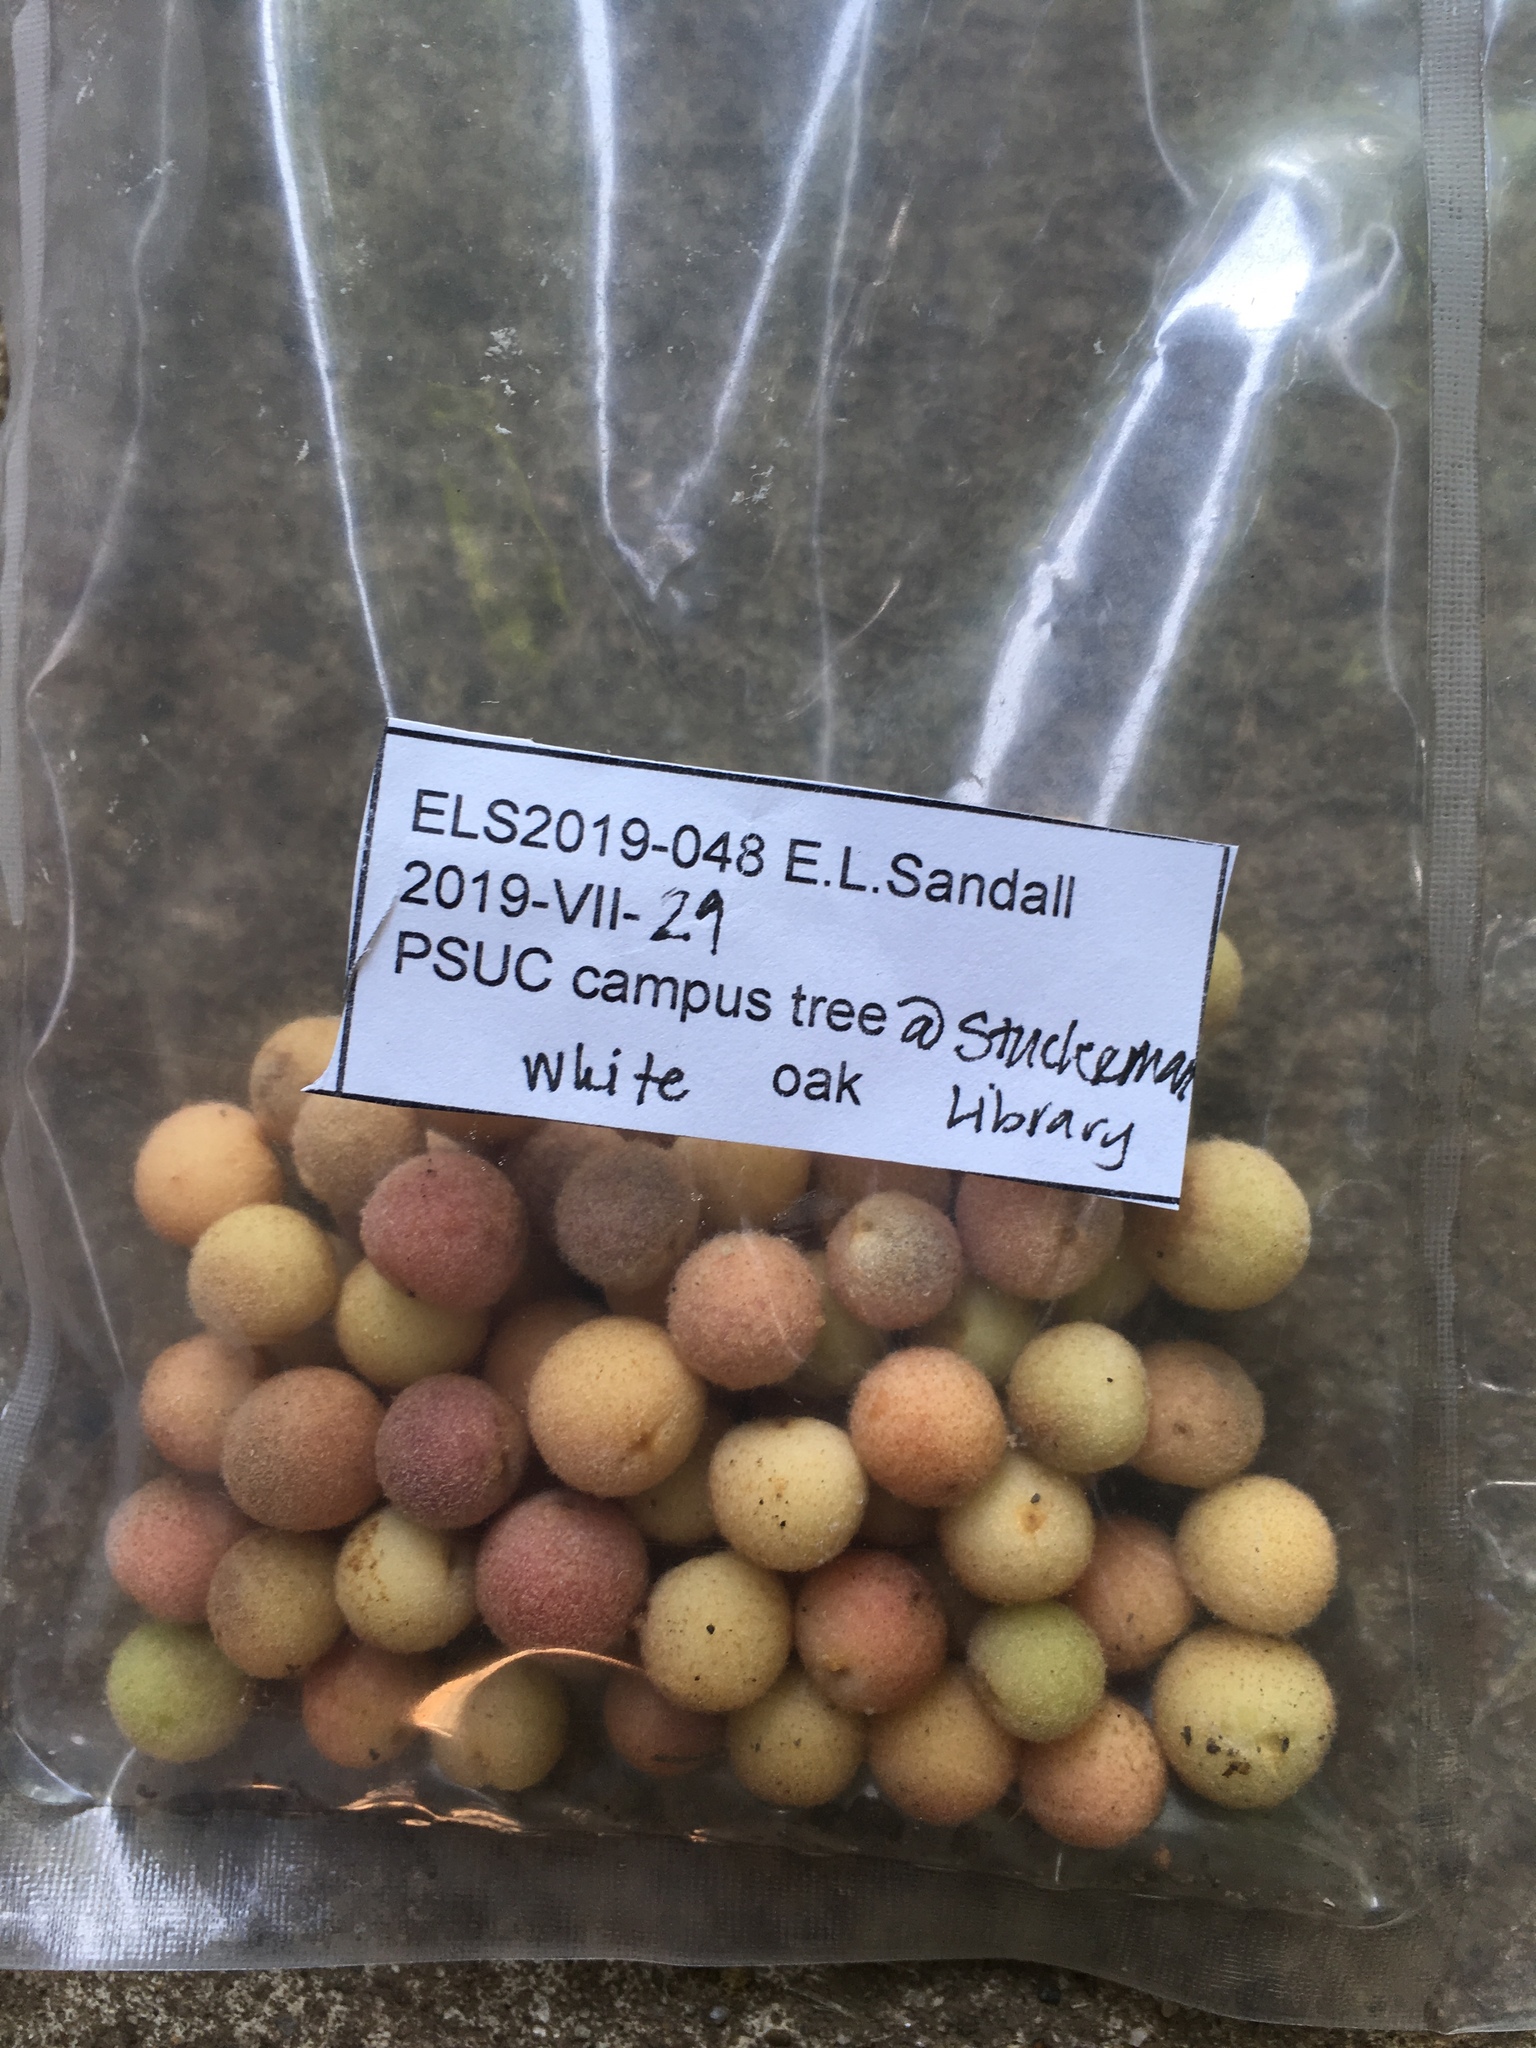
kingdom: Animalia
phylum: Arthropoda
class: Insecta
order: Hymenoptera
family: Cynipidae
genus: Philonix
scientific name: Philonix fulvicollis
